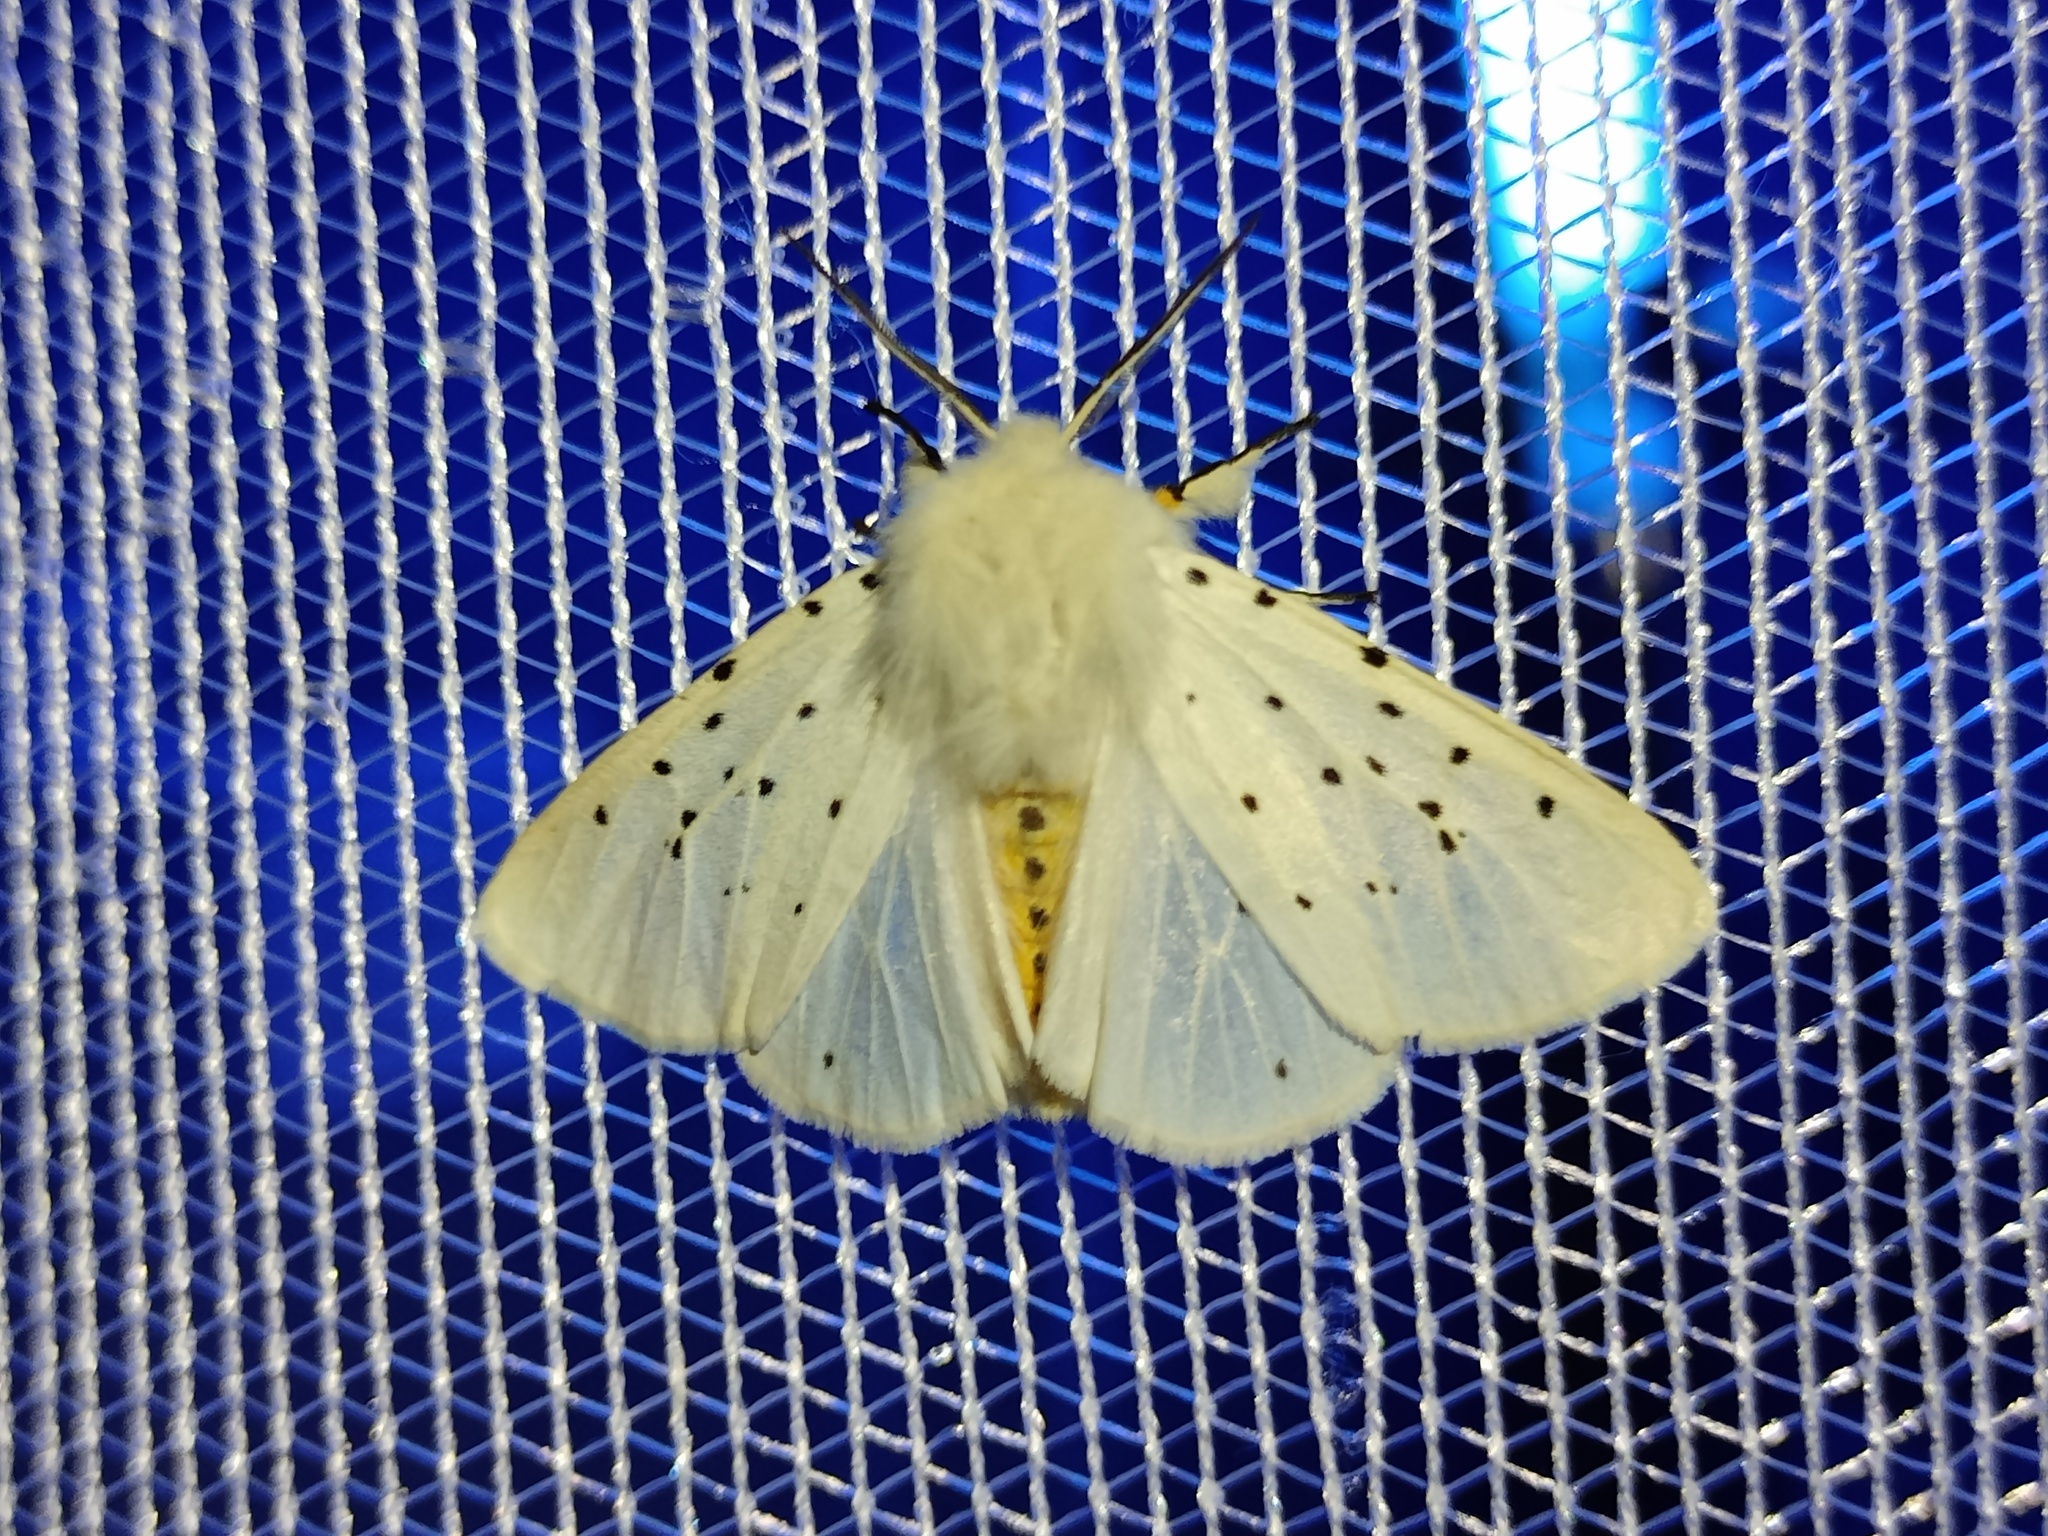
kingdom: Animalia
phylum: Arthropoda
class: Insecta
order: Lepidoptera
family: Erebidae
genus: Spilosoma
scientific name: Spilosoma lubricipeda
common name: White ermine
